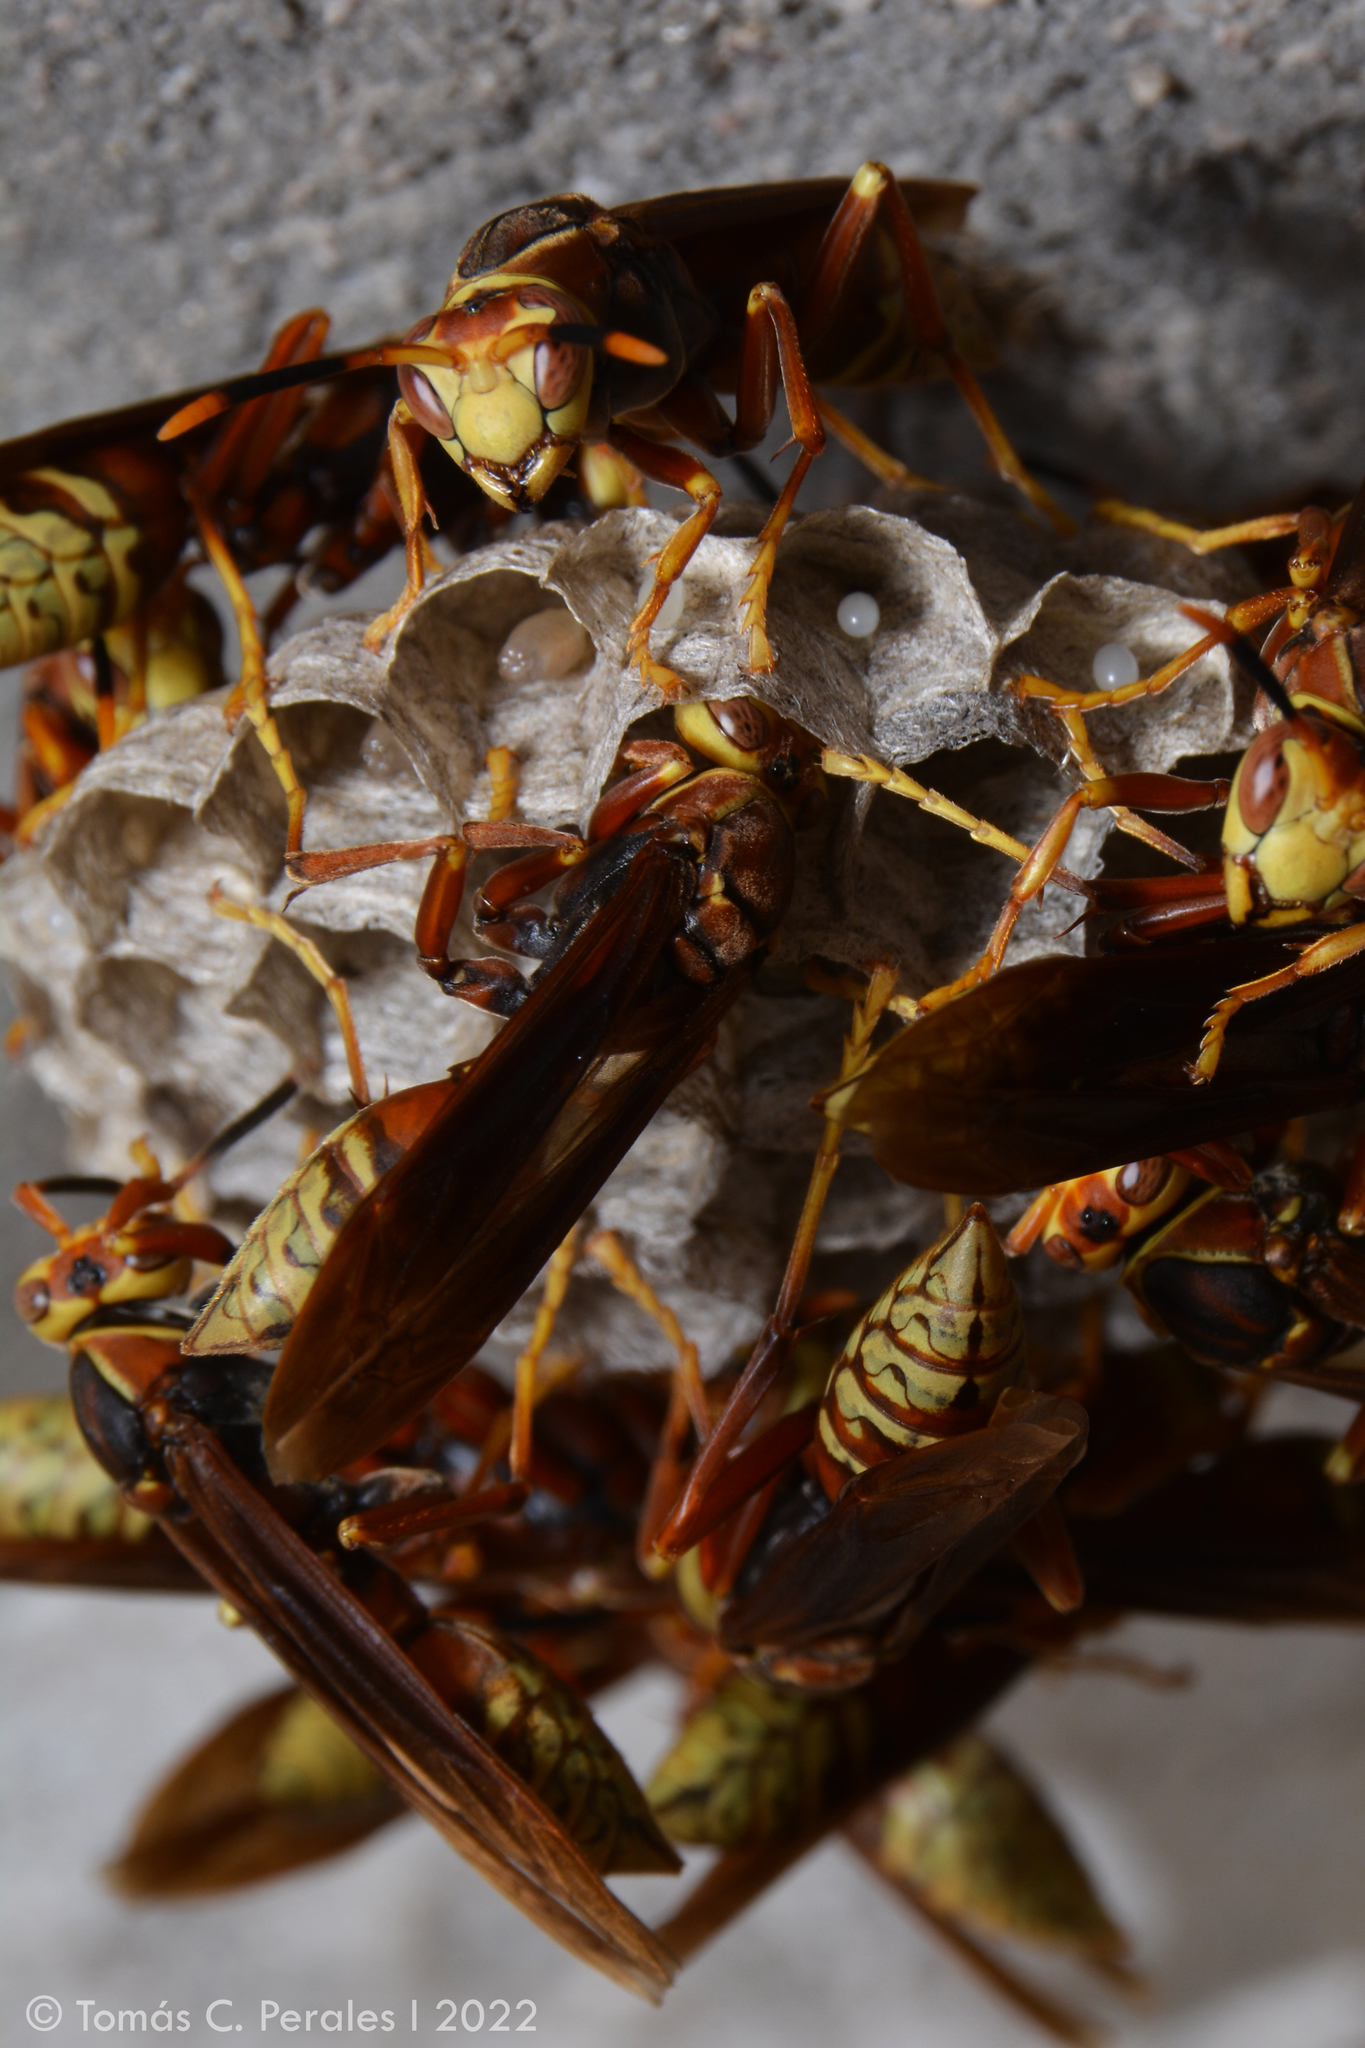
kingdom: Animalia
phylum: Arthropoda
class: Insecta
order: Hymenoptera
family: Eumenidae
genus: Polistes
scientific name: Polistes cavapyta
